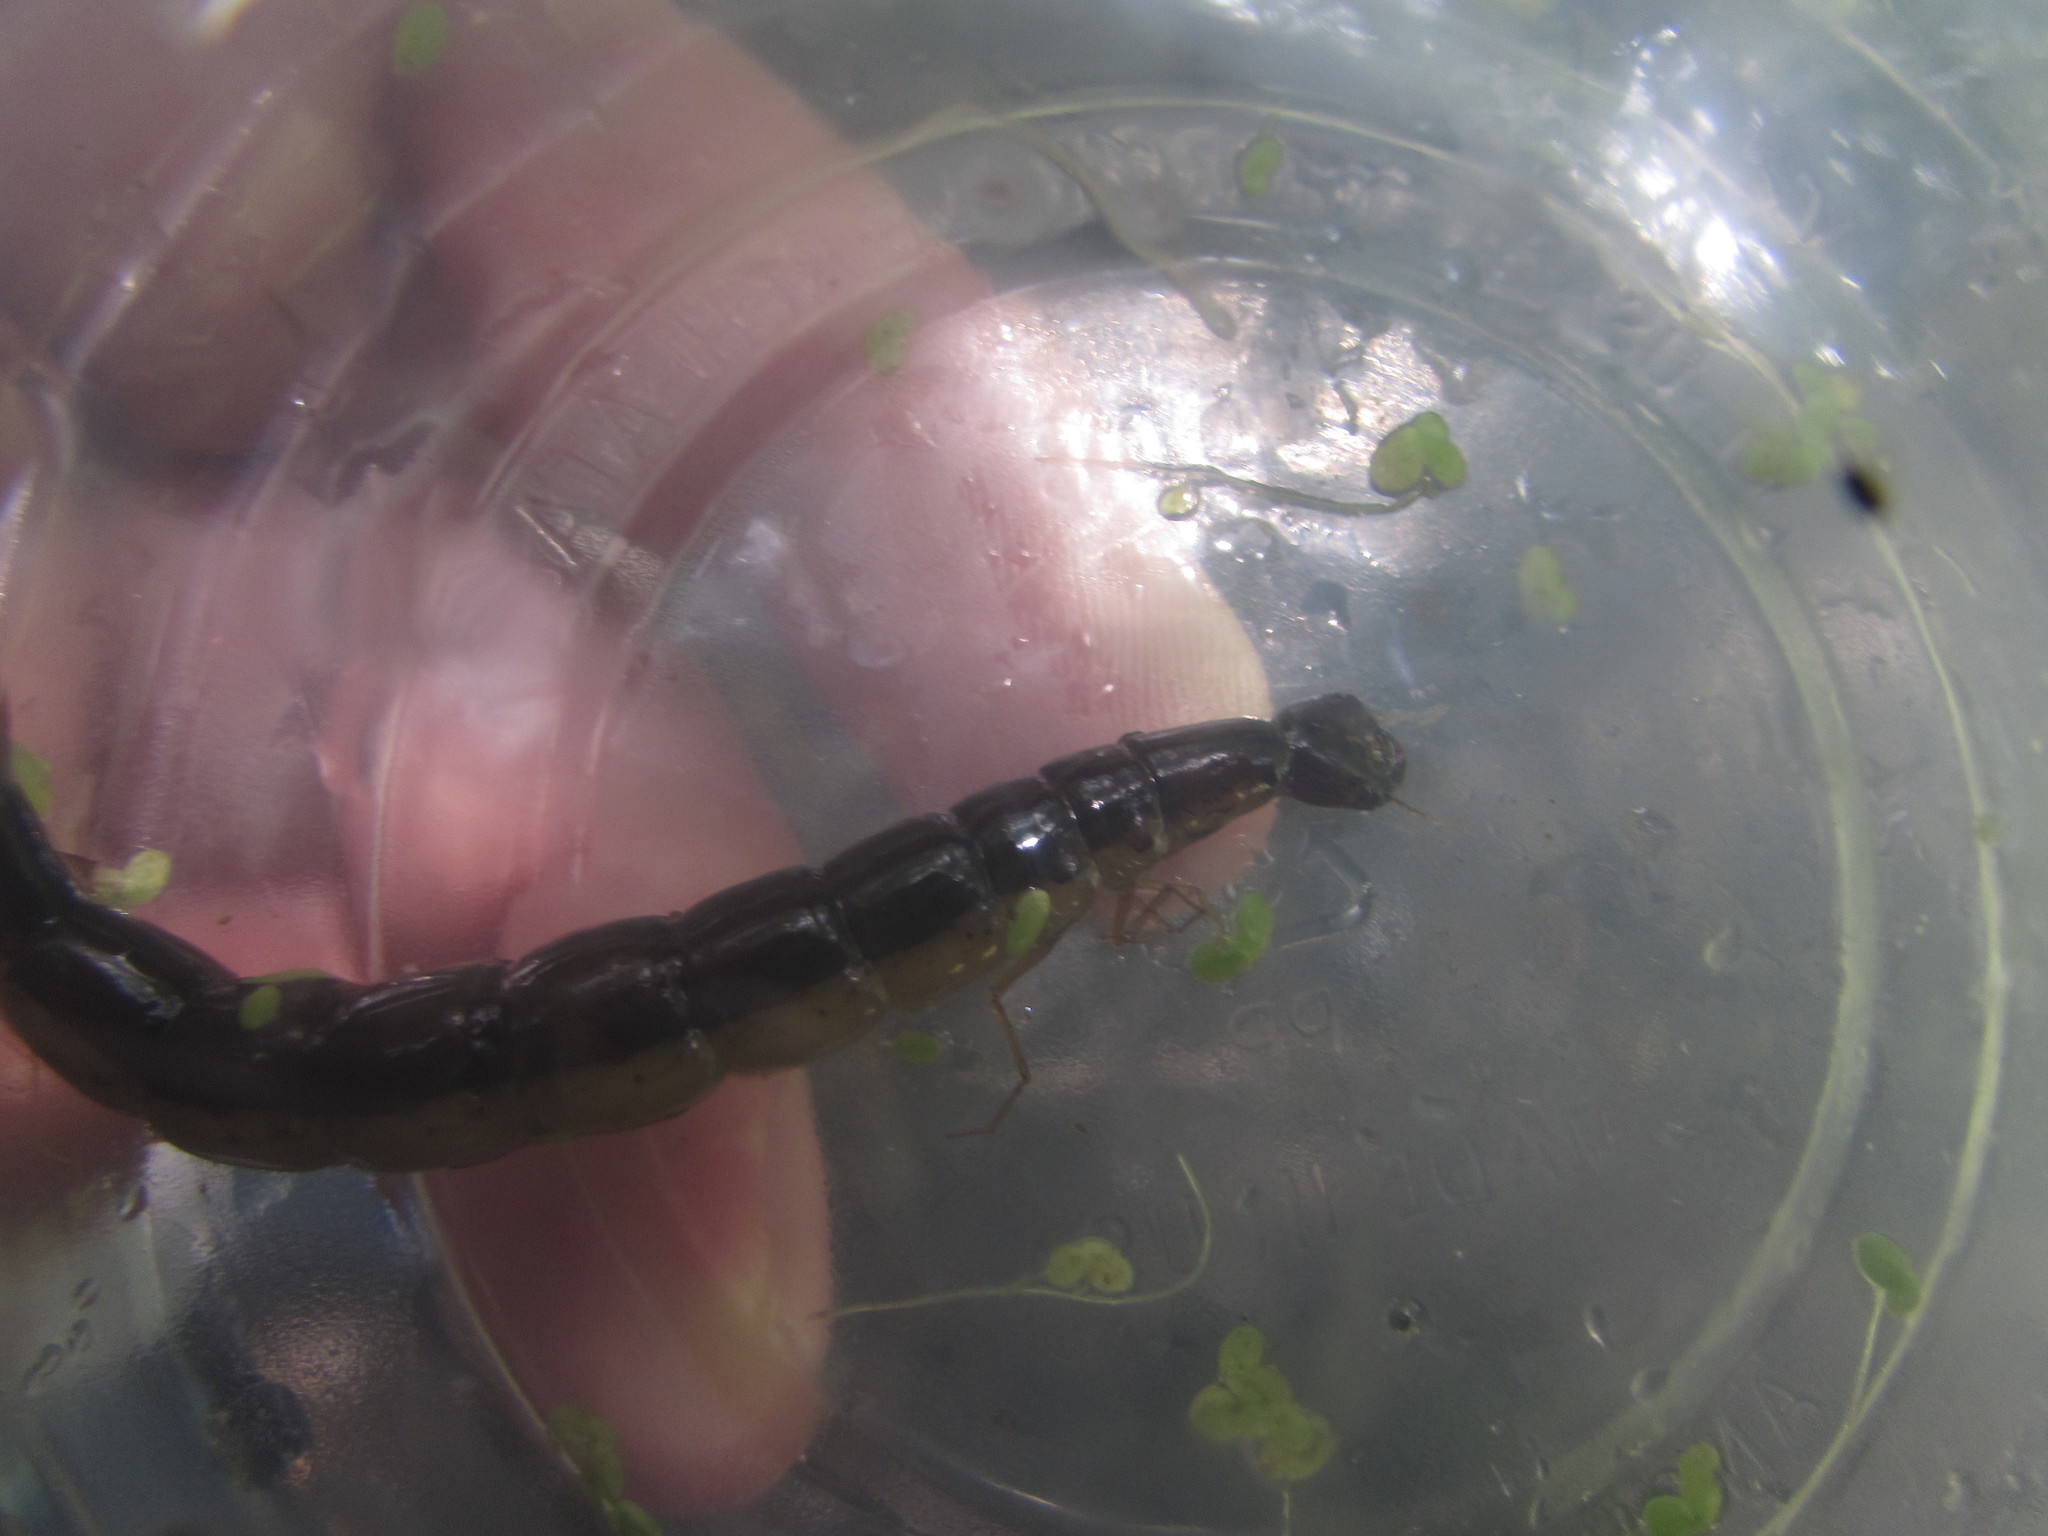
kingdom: Animalia
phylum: Arthropoda
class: Insecta
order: Coleoptera
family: Dytiscidae
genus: Cybister
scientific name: Cybister fimbriolatus
